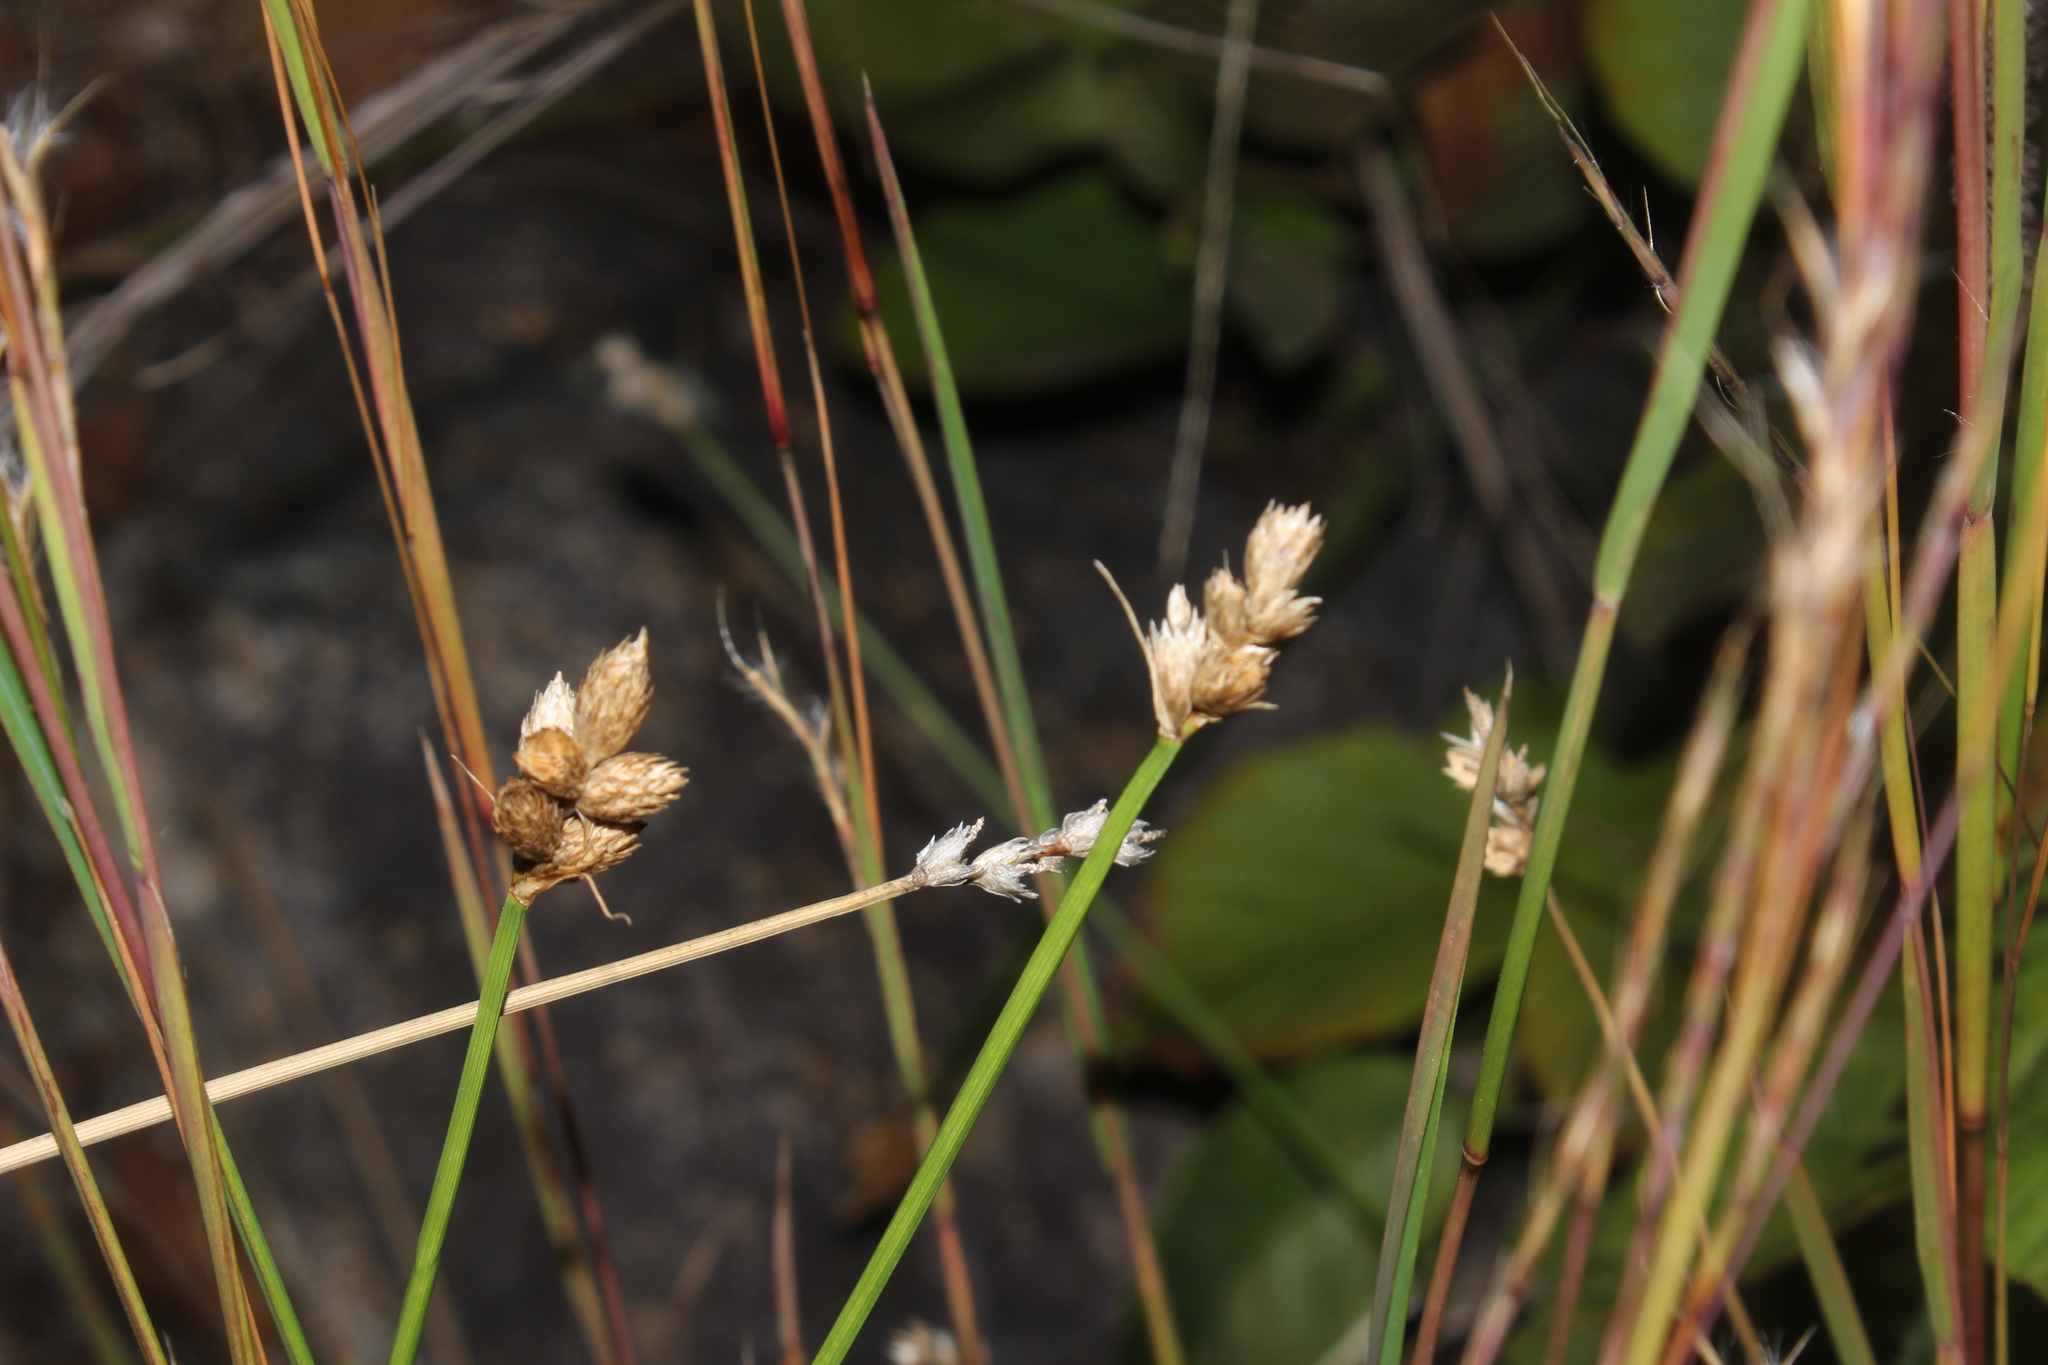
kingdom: Plantae
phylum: Tracheophyta
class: Liliopsida
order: Poales
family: Cyperaceae
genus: Carex
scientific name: Carex
